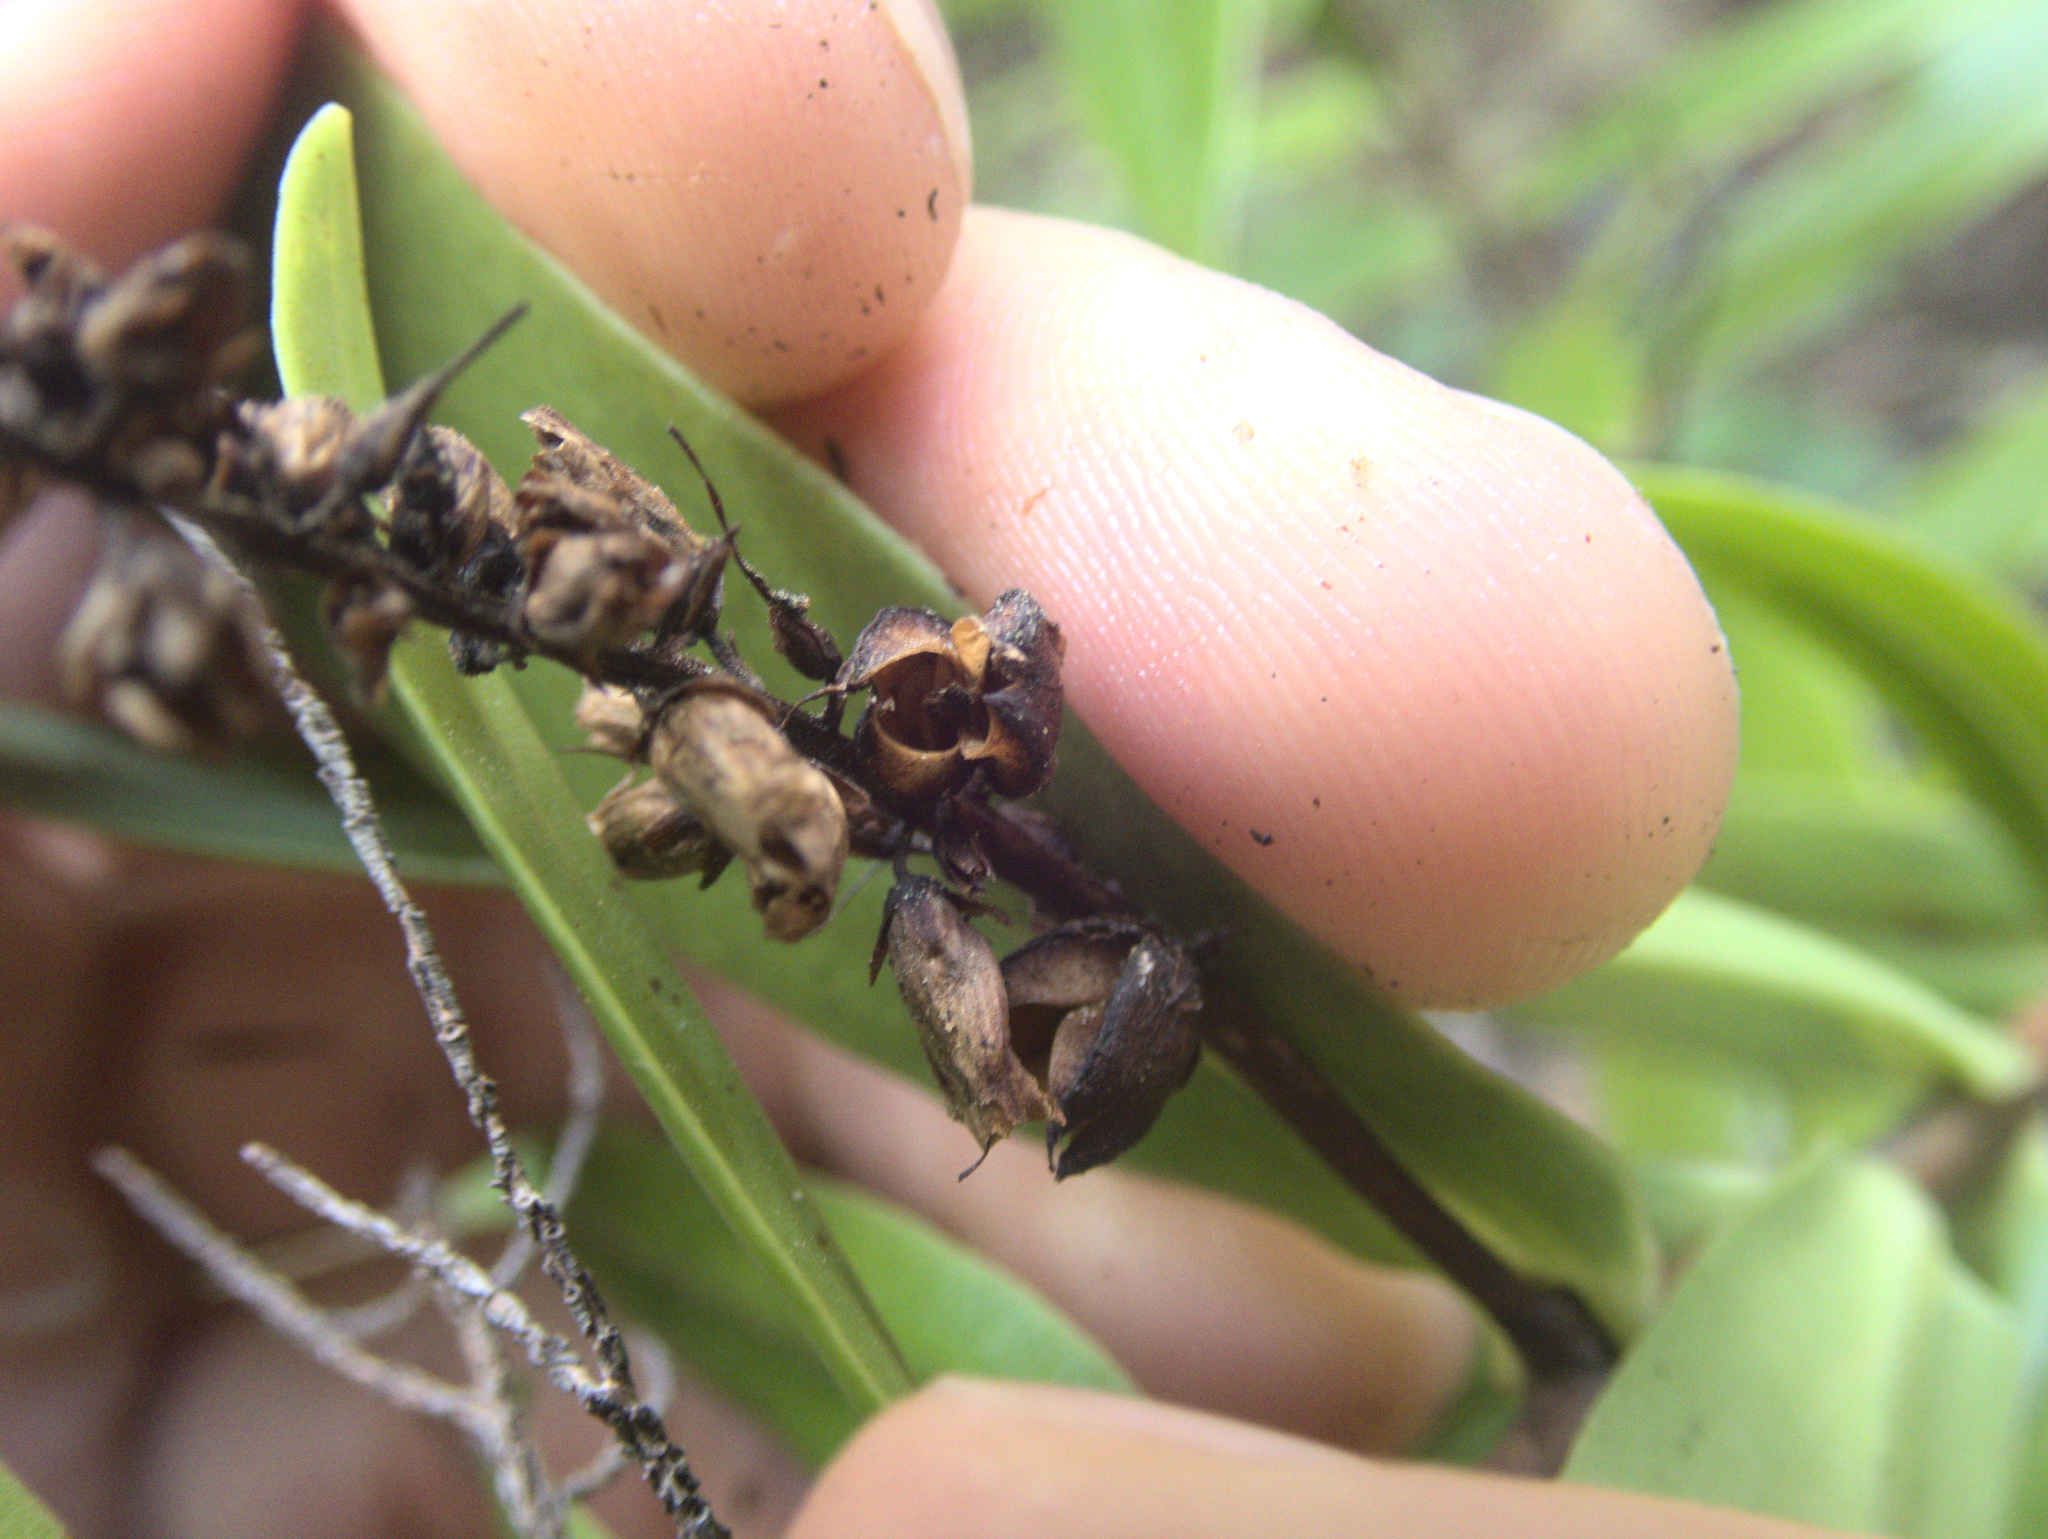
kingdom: Plantae
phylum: Tracheophyta
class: Magnoliopsida
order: Lamiales
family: Plantaginaceae
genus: Veronica
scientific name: Veronica macrocarpa
